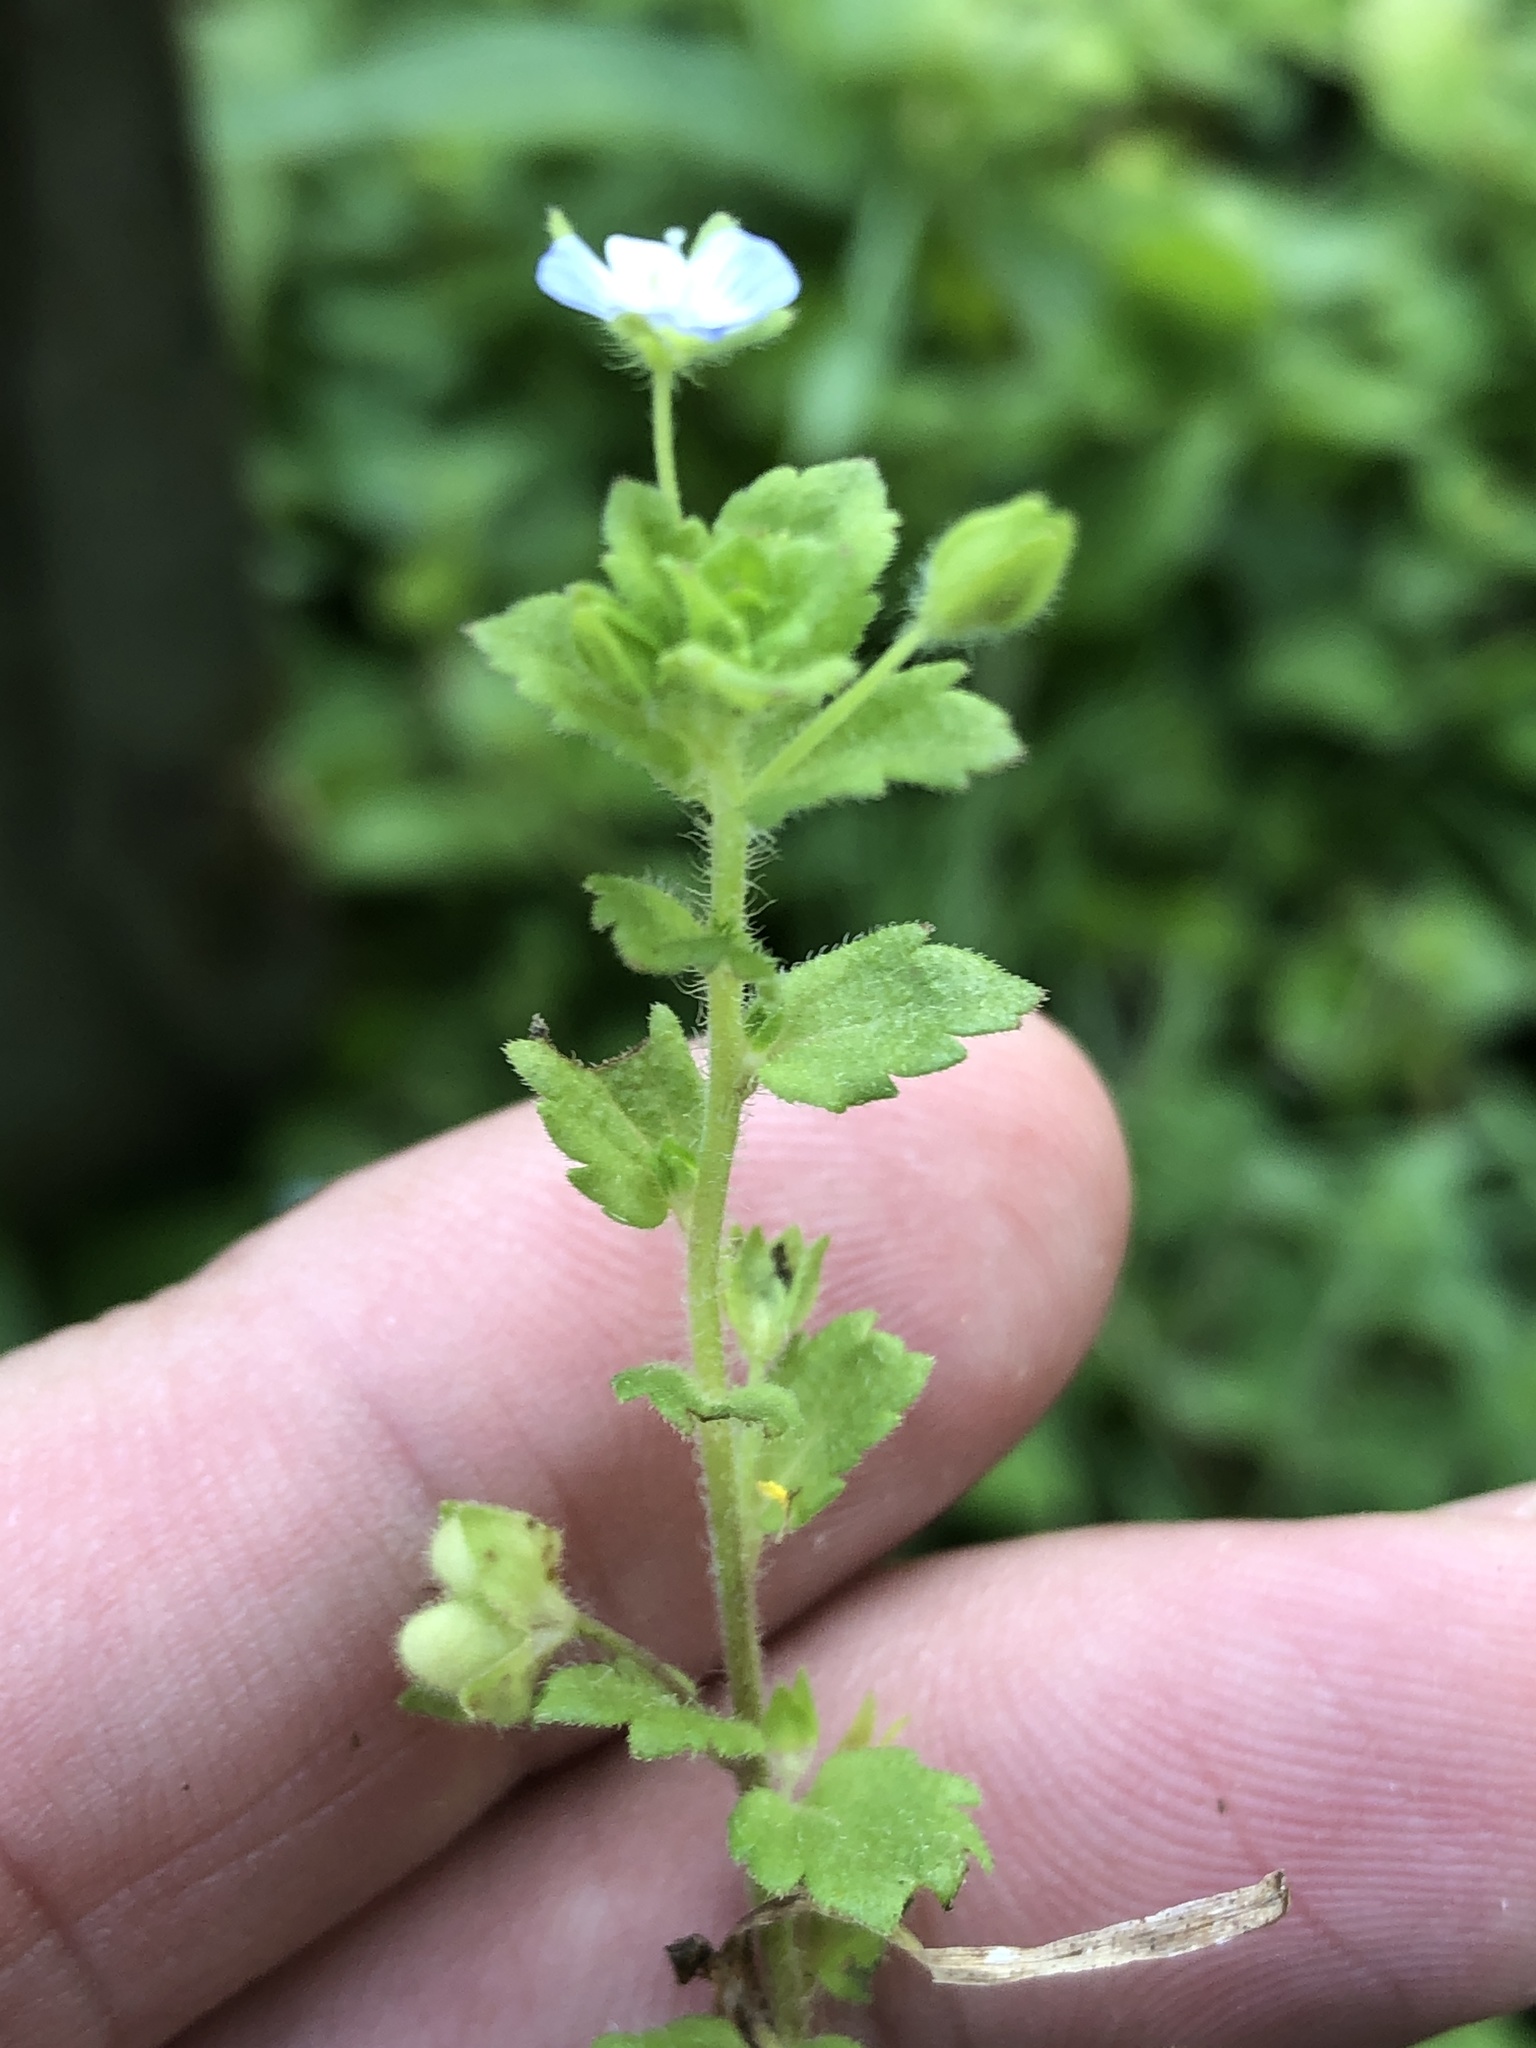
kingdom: Plantae
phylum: Tracheophyta
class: Magnoliopsida
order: Lamiales
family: Plantaginaceae
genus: Veronica
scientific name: Veronica persica
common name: Common field-speedwell
